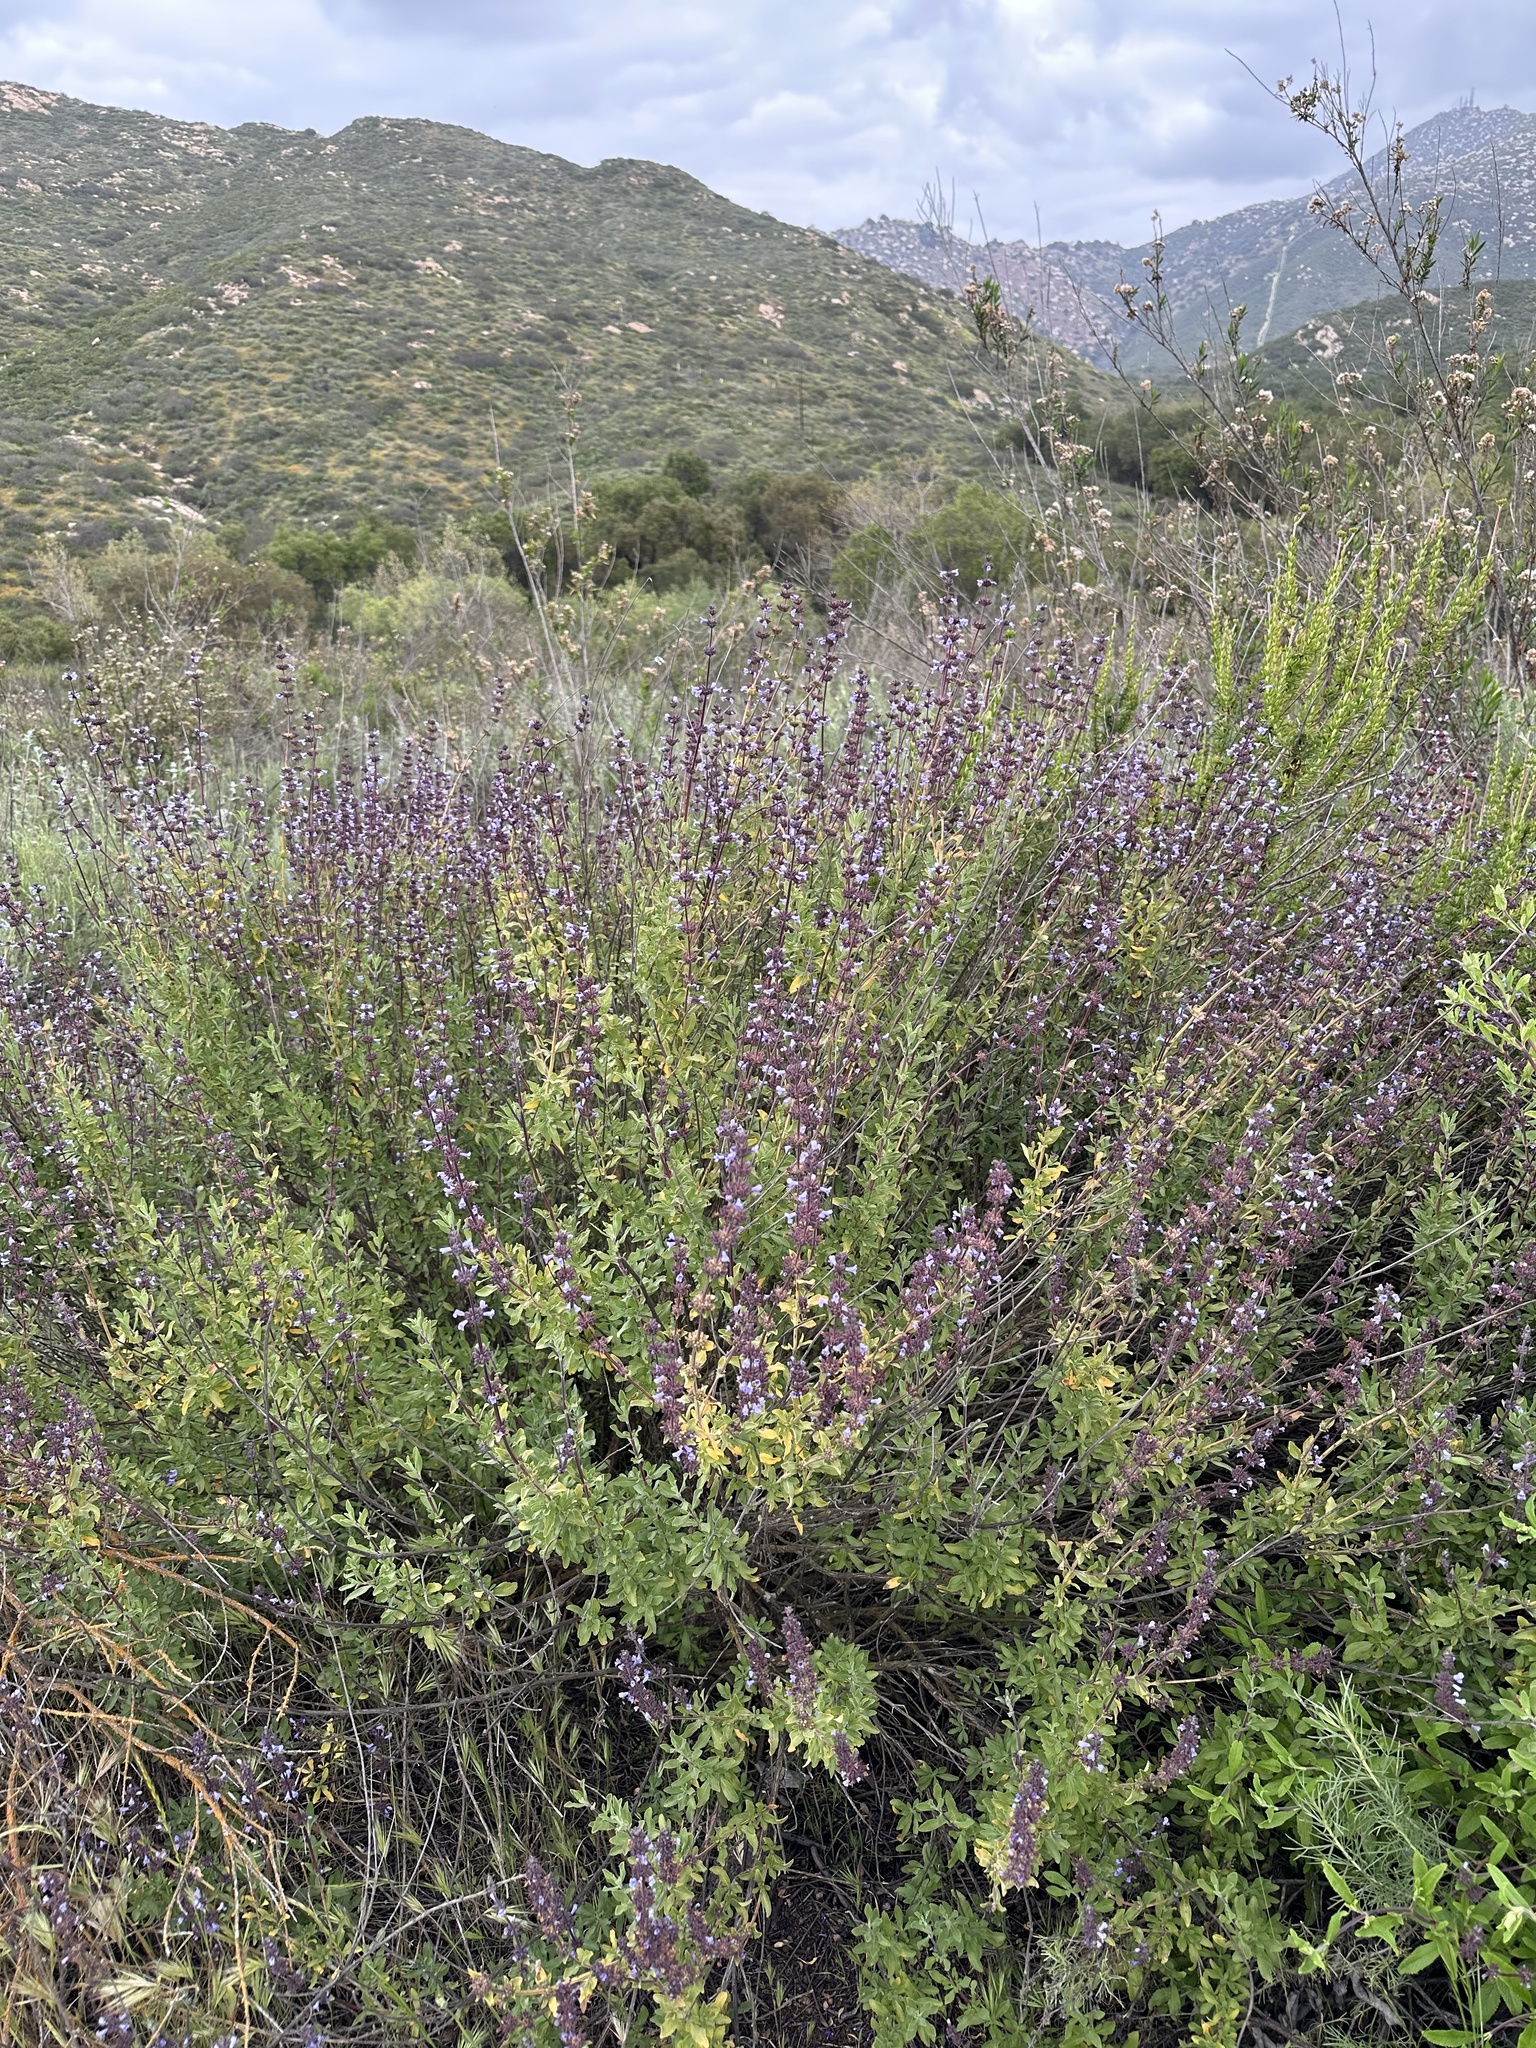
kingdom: Plantae
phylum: Tracheophyta
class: Magnoliopsida
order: Lamiales
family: Lamiaceae
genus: Salvia
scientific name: Salvia munzii
